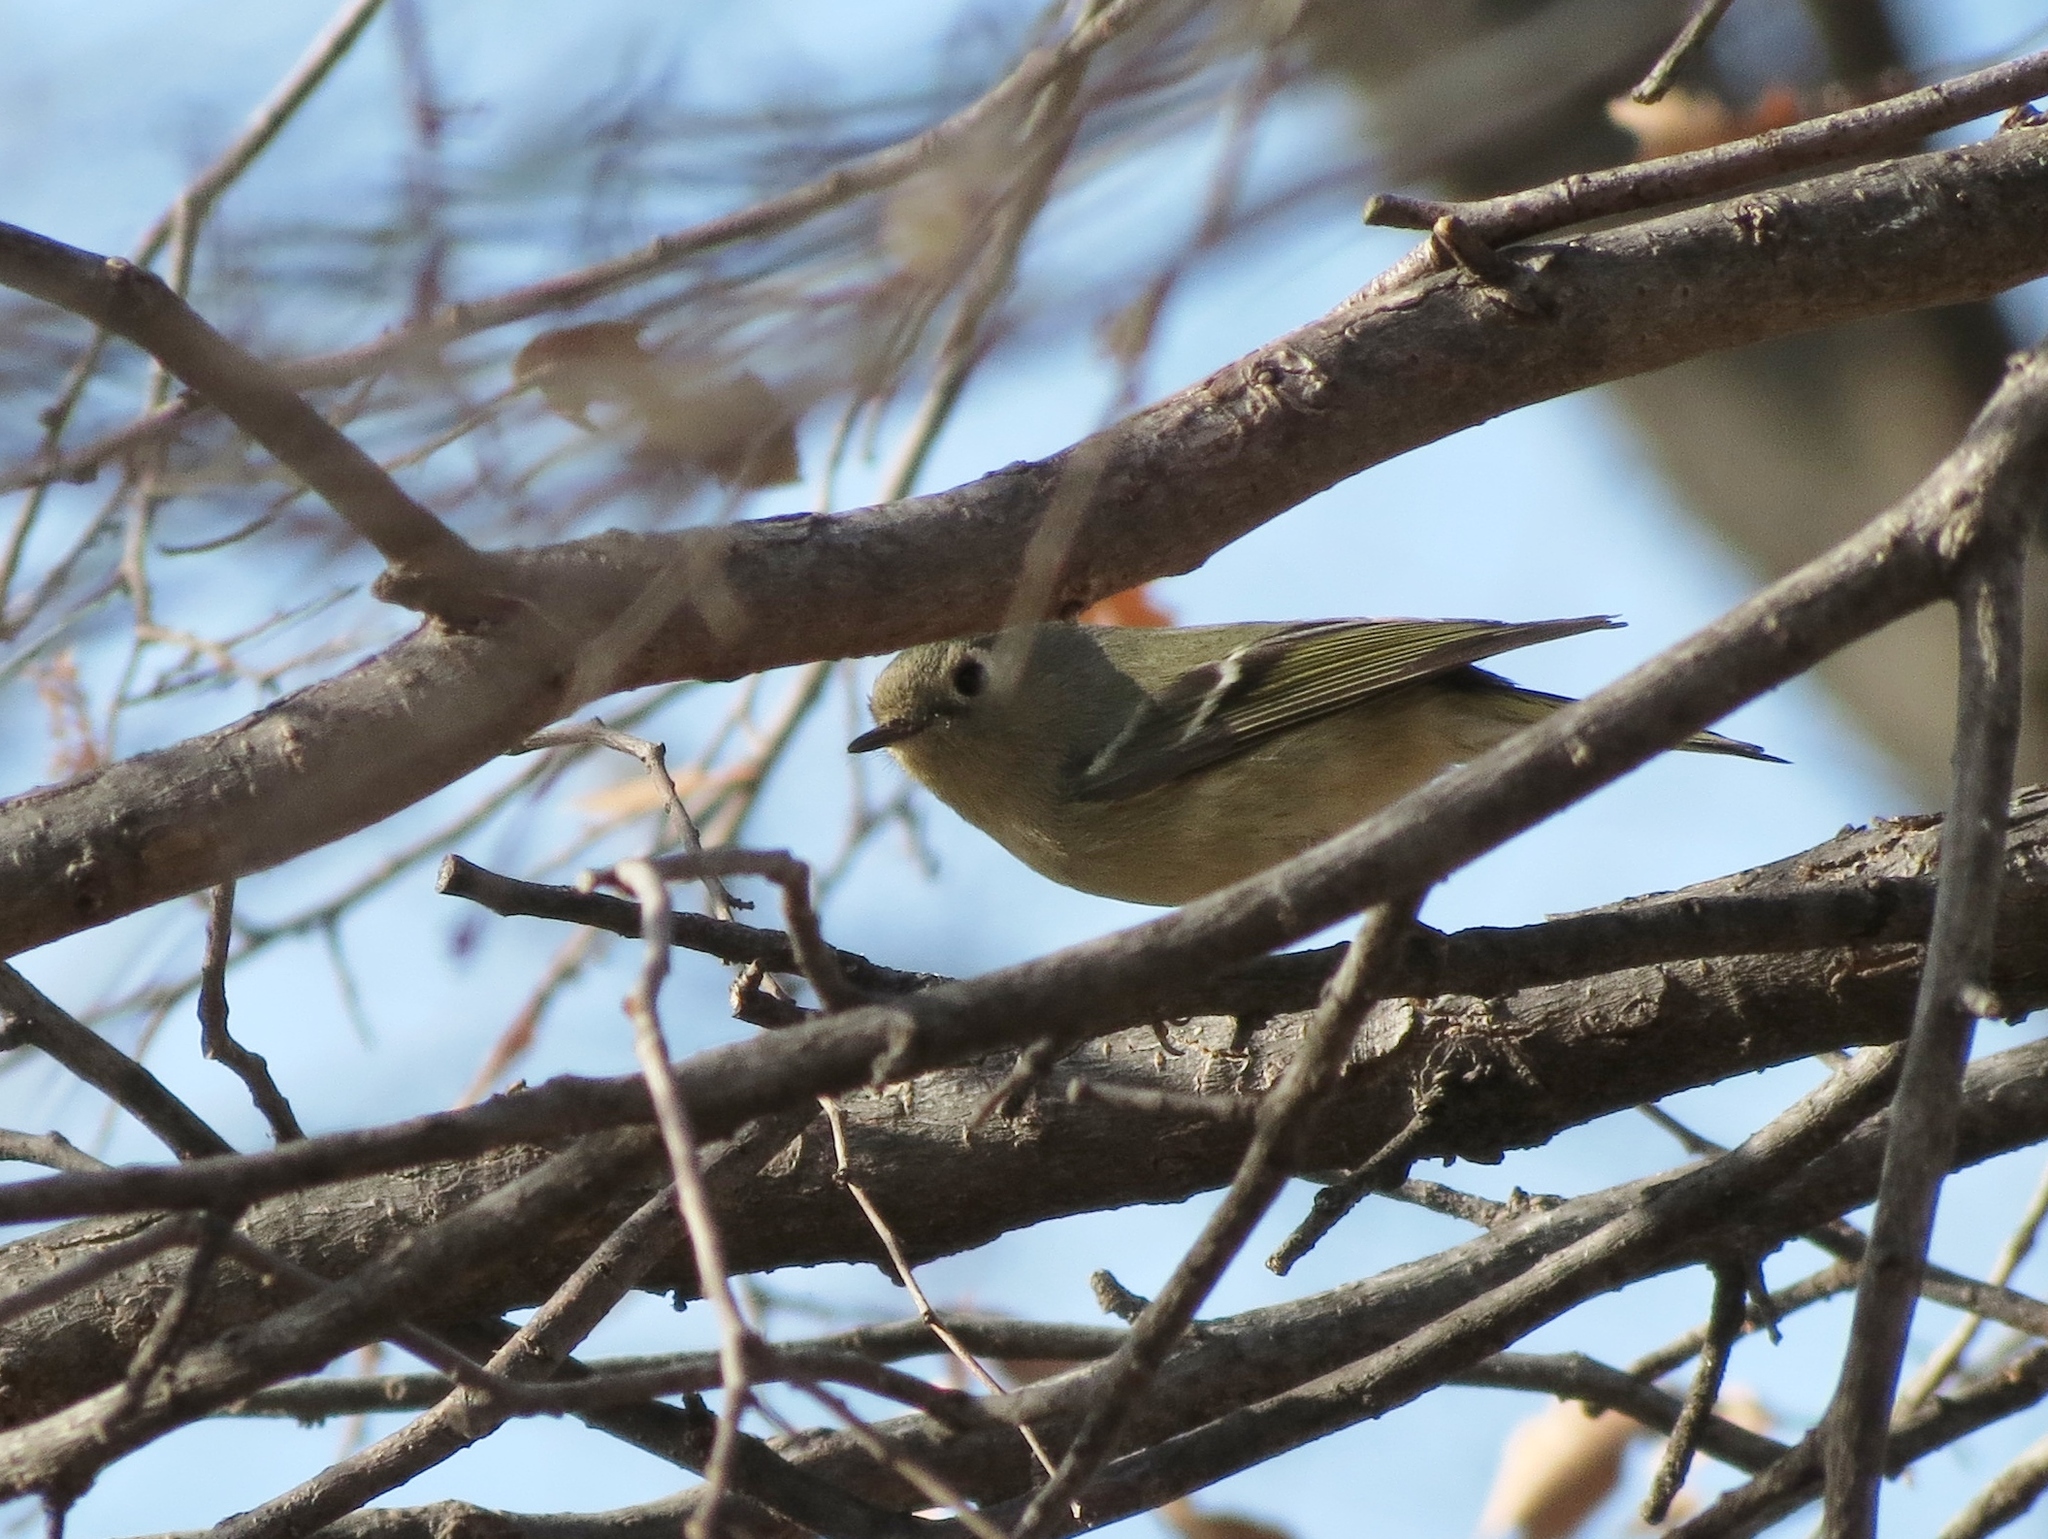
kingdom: Animalia
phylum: Chordata
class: Aves
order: Passeriformes
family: Regulidae
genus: Regulus
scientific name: Regulus calendula
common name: Ruby-crowned kinglet
